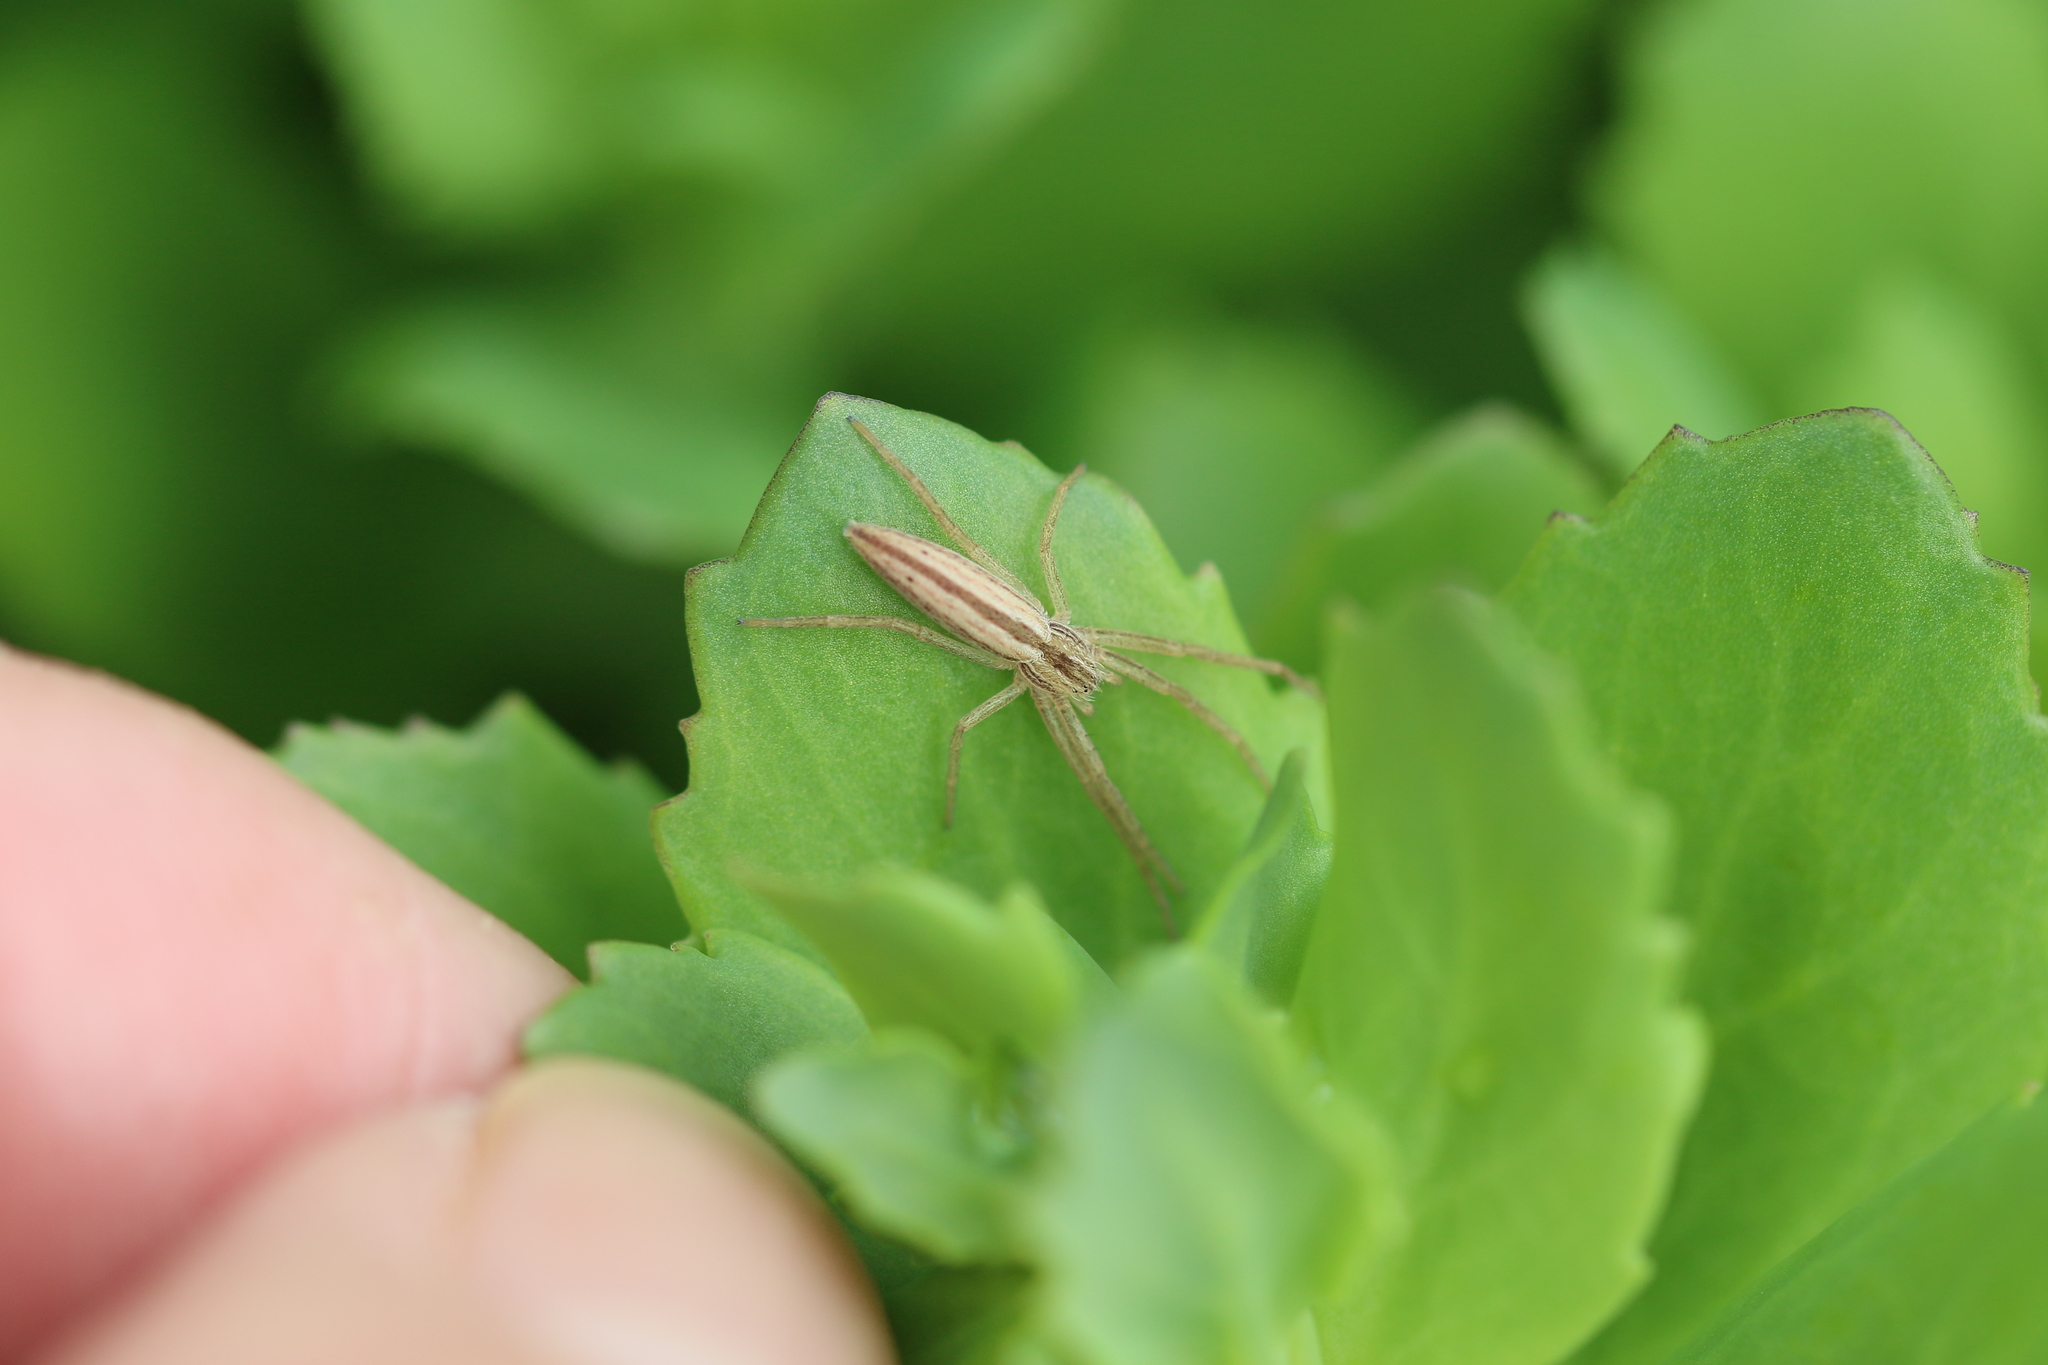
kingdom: Animalia
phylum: Arthropoda
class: Arachnida
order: Araneae
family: Philodromidae
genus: Tibellus
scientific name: Tibellus oblongus
